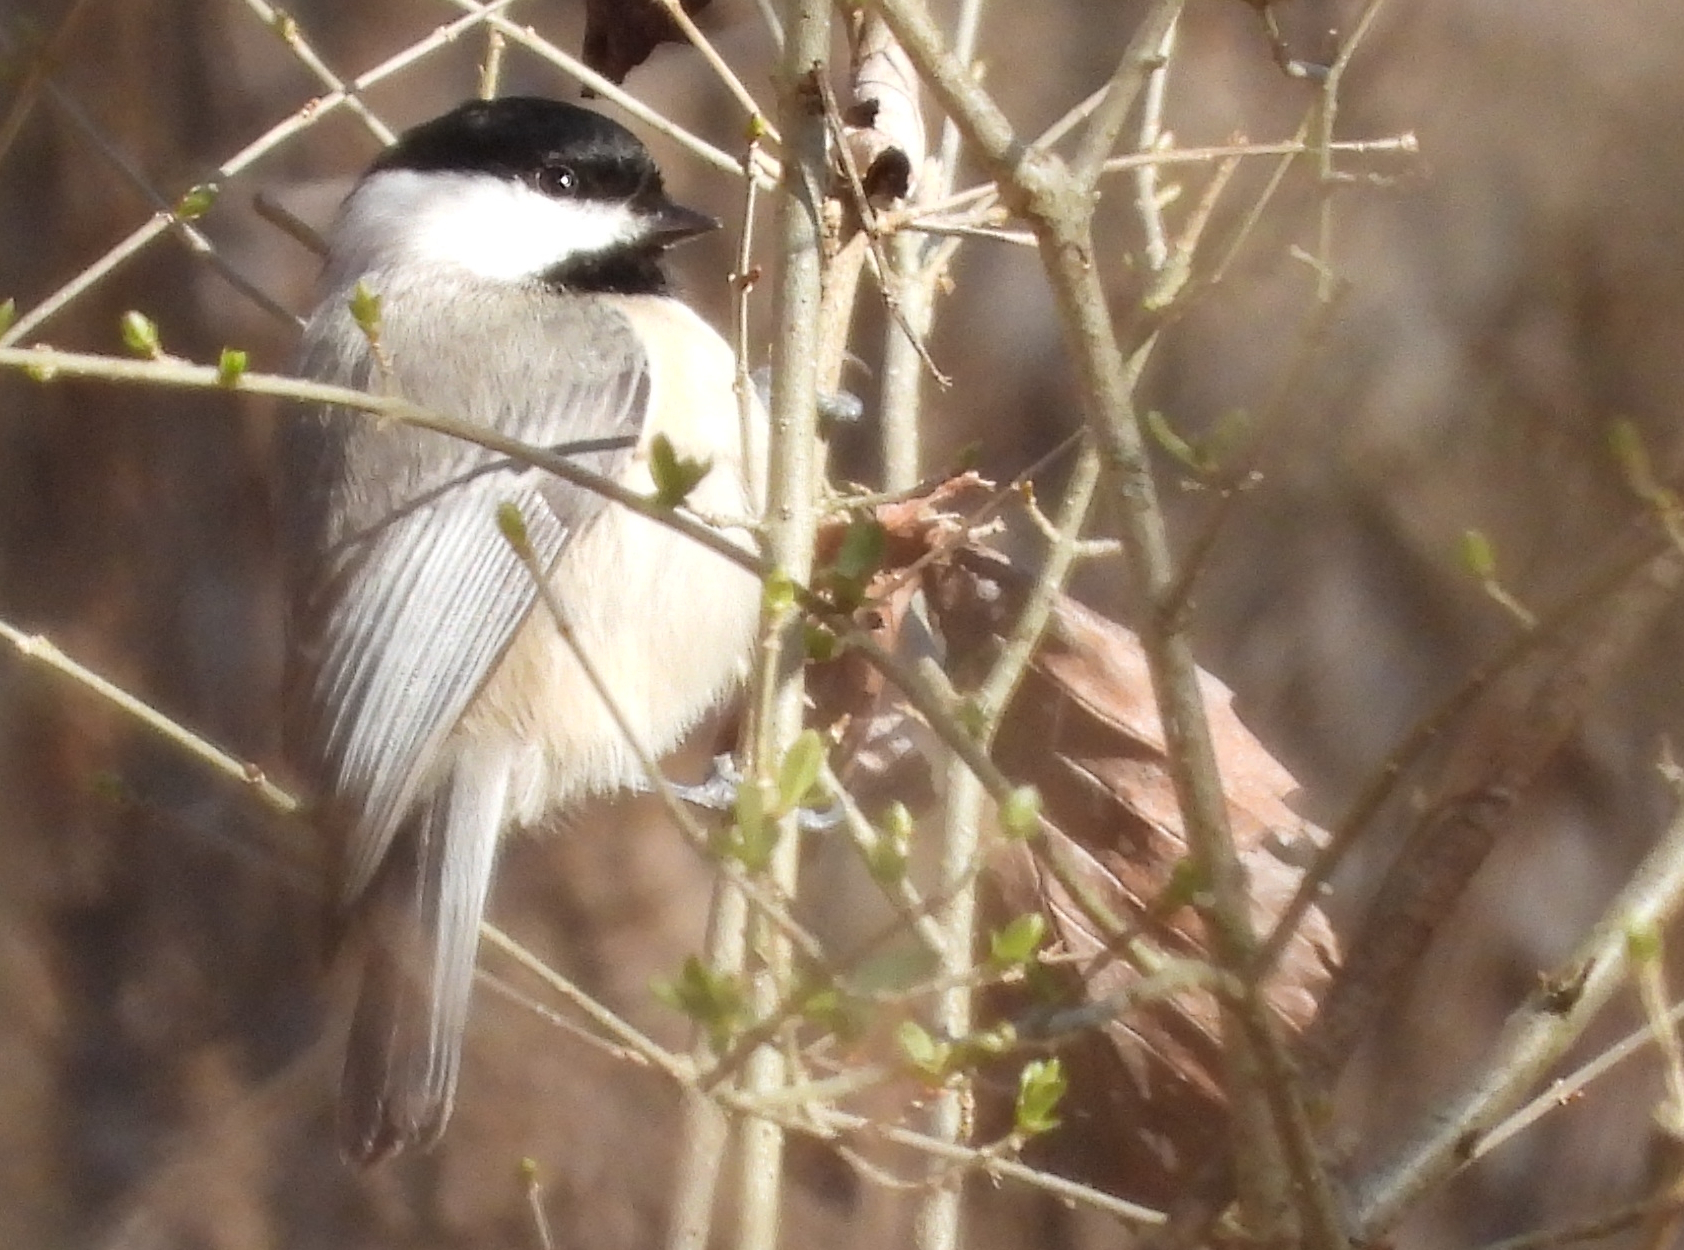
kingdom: Animalia
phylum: Chordata
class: Aves
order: Passeriformes
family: Paridae
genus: Poecile
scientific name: Poecile carolinensis
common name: Carolina chickadee
